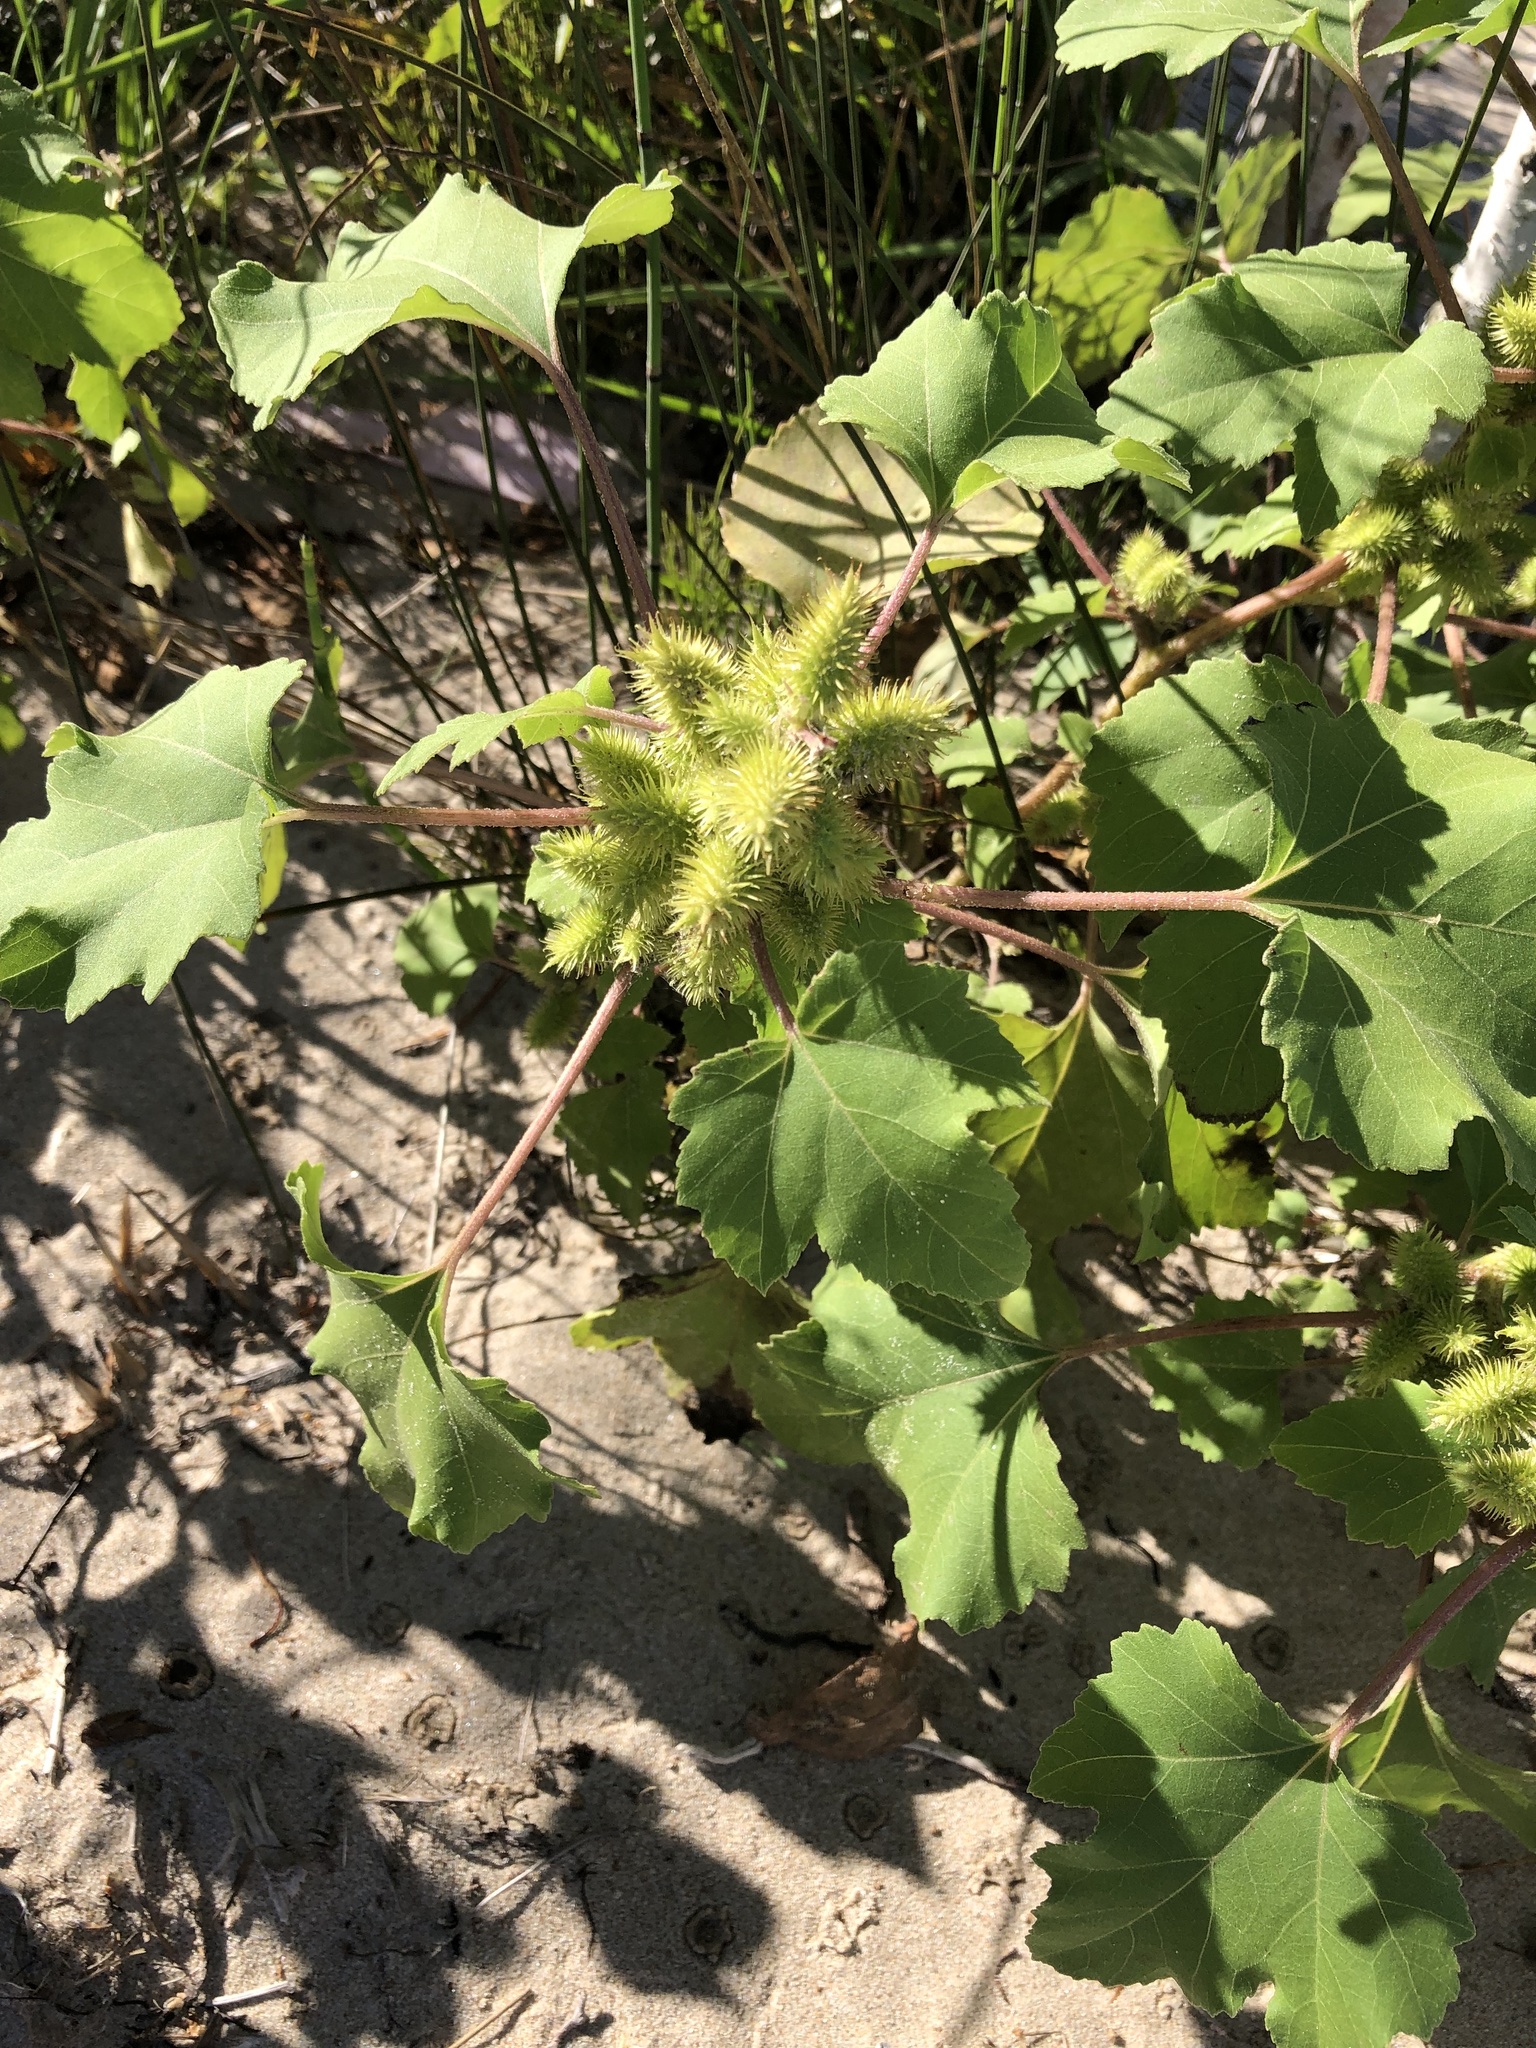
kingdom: Plantae
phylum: Tracheophyta
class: Magnoliopsida
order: Asterales
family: Asteraceae
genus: Xanthium
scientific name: Xanthium strumarium
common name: Rough cocklebur
